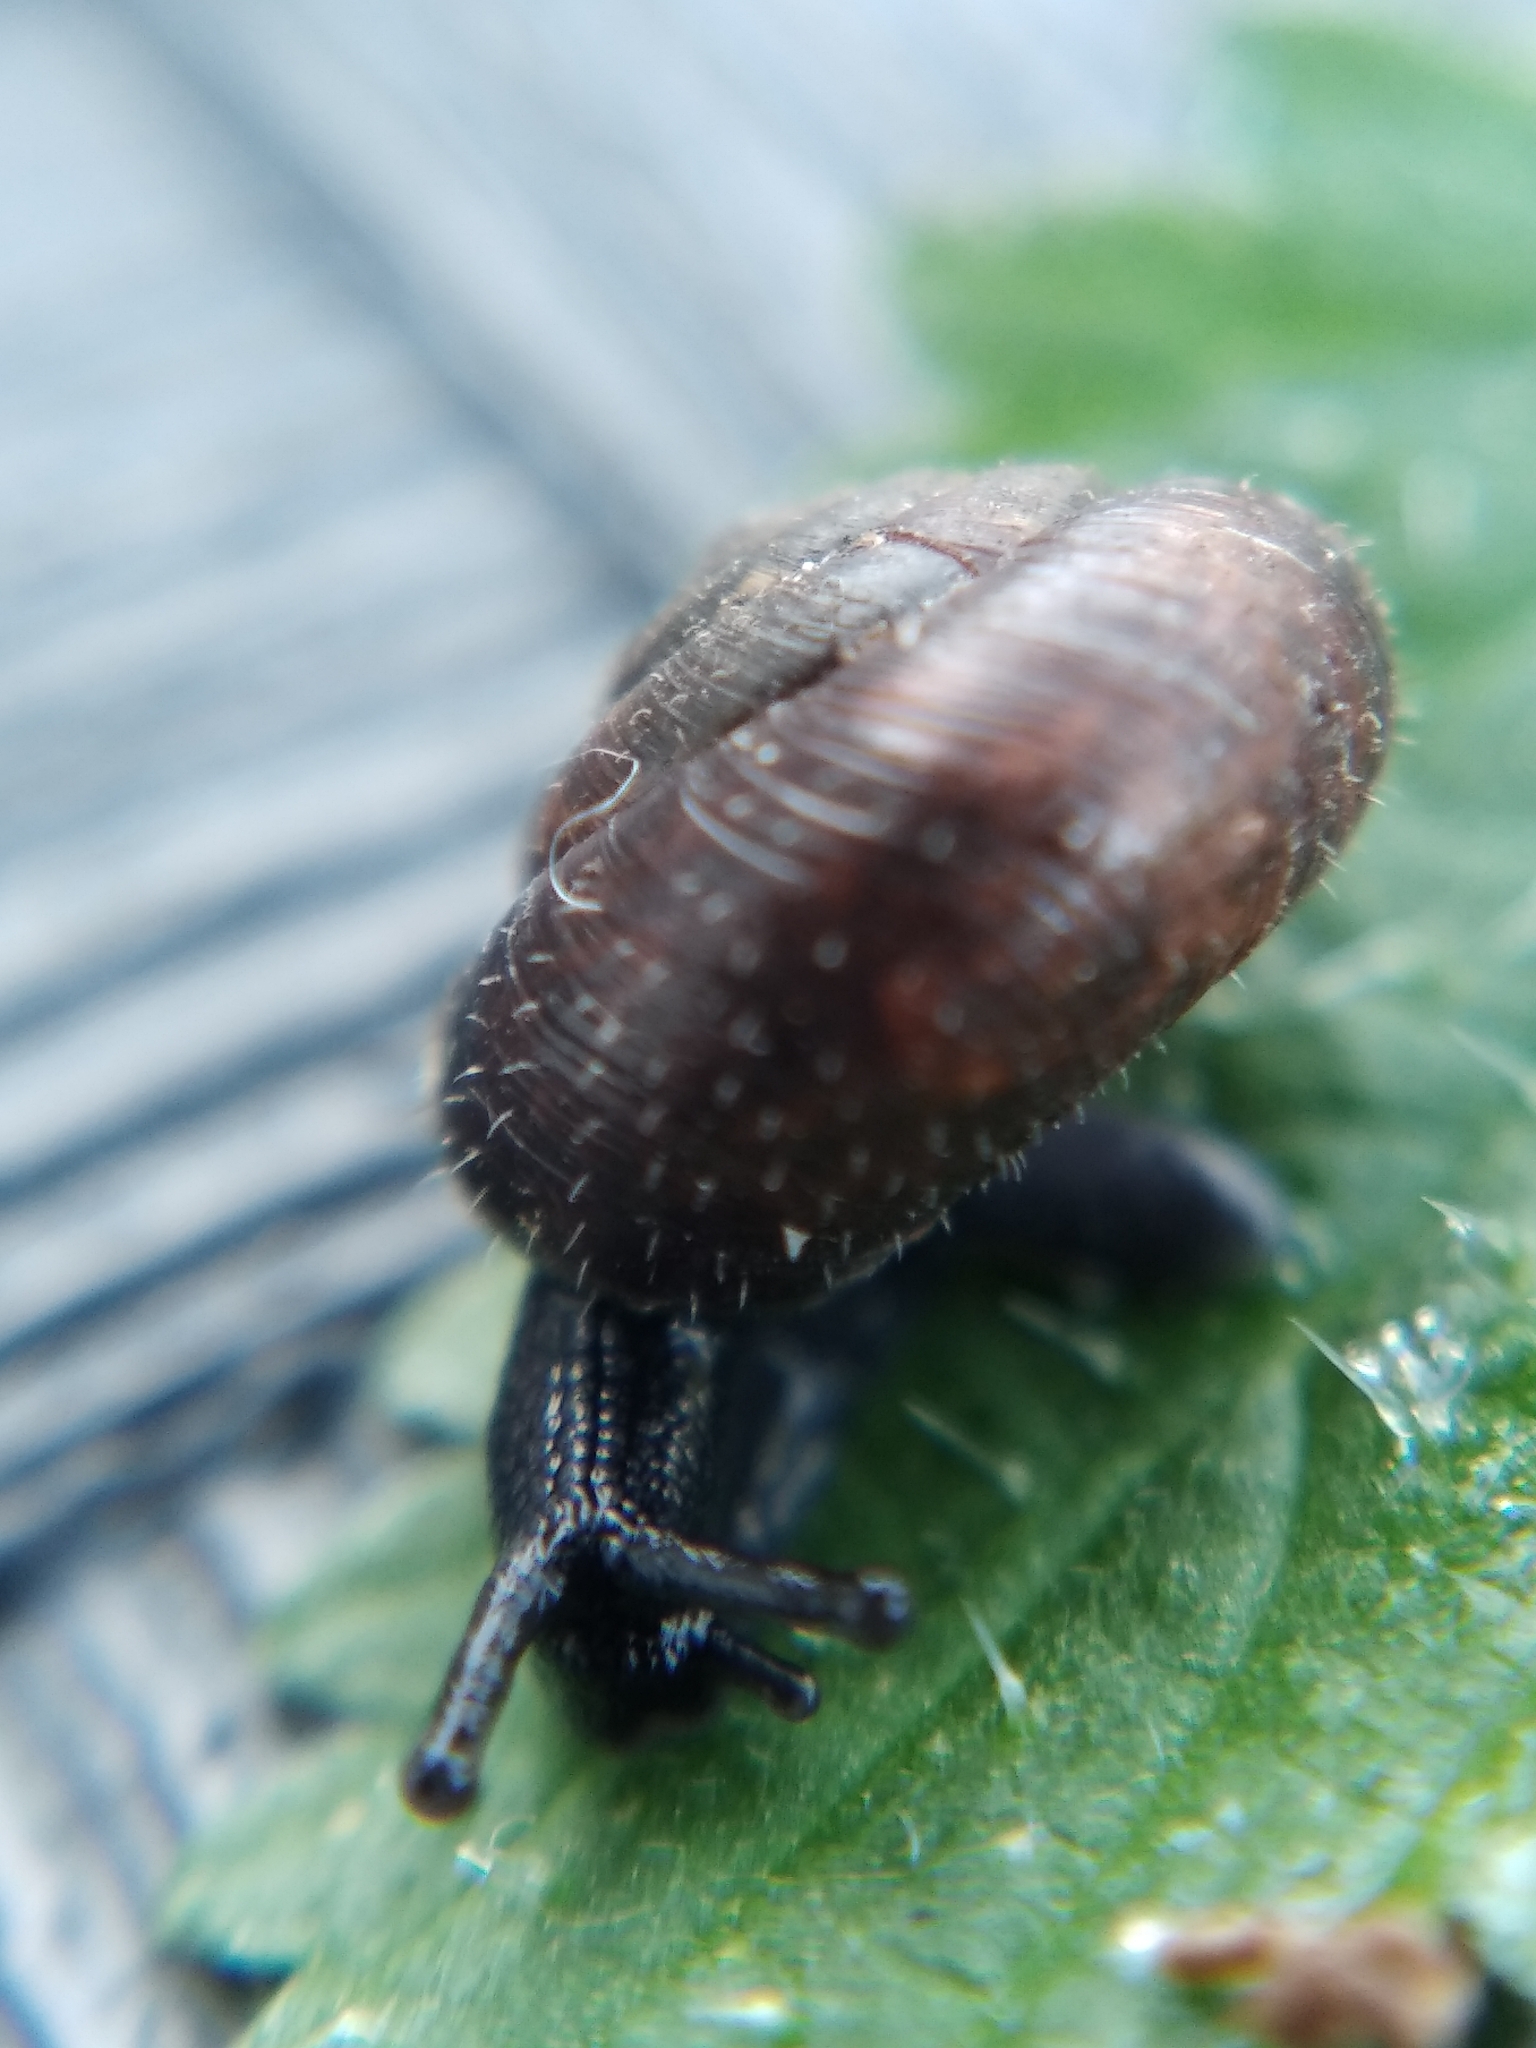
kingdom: Animalia
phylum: Mollusca
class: Gastropoda
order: Stylommatophora
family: Hygromiidae
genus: Trochulus
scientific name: Trochulus hispidus
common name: Hairy snail
